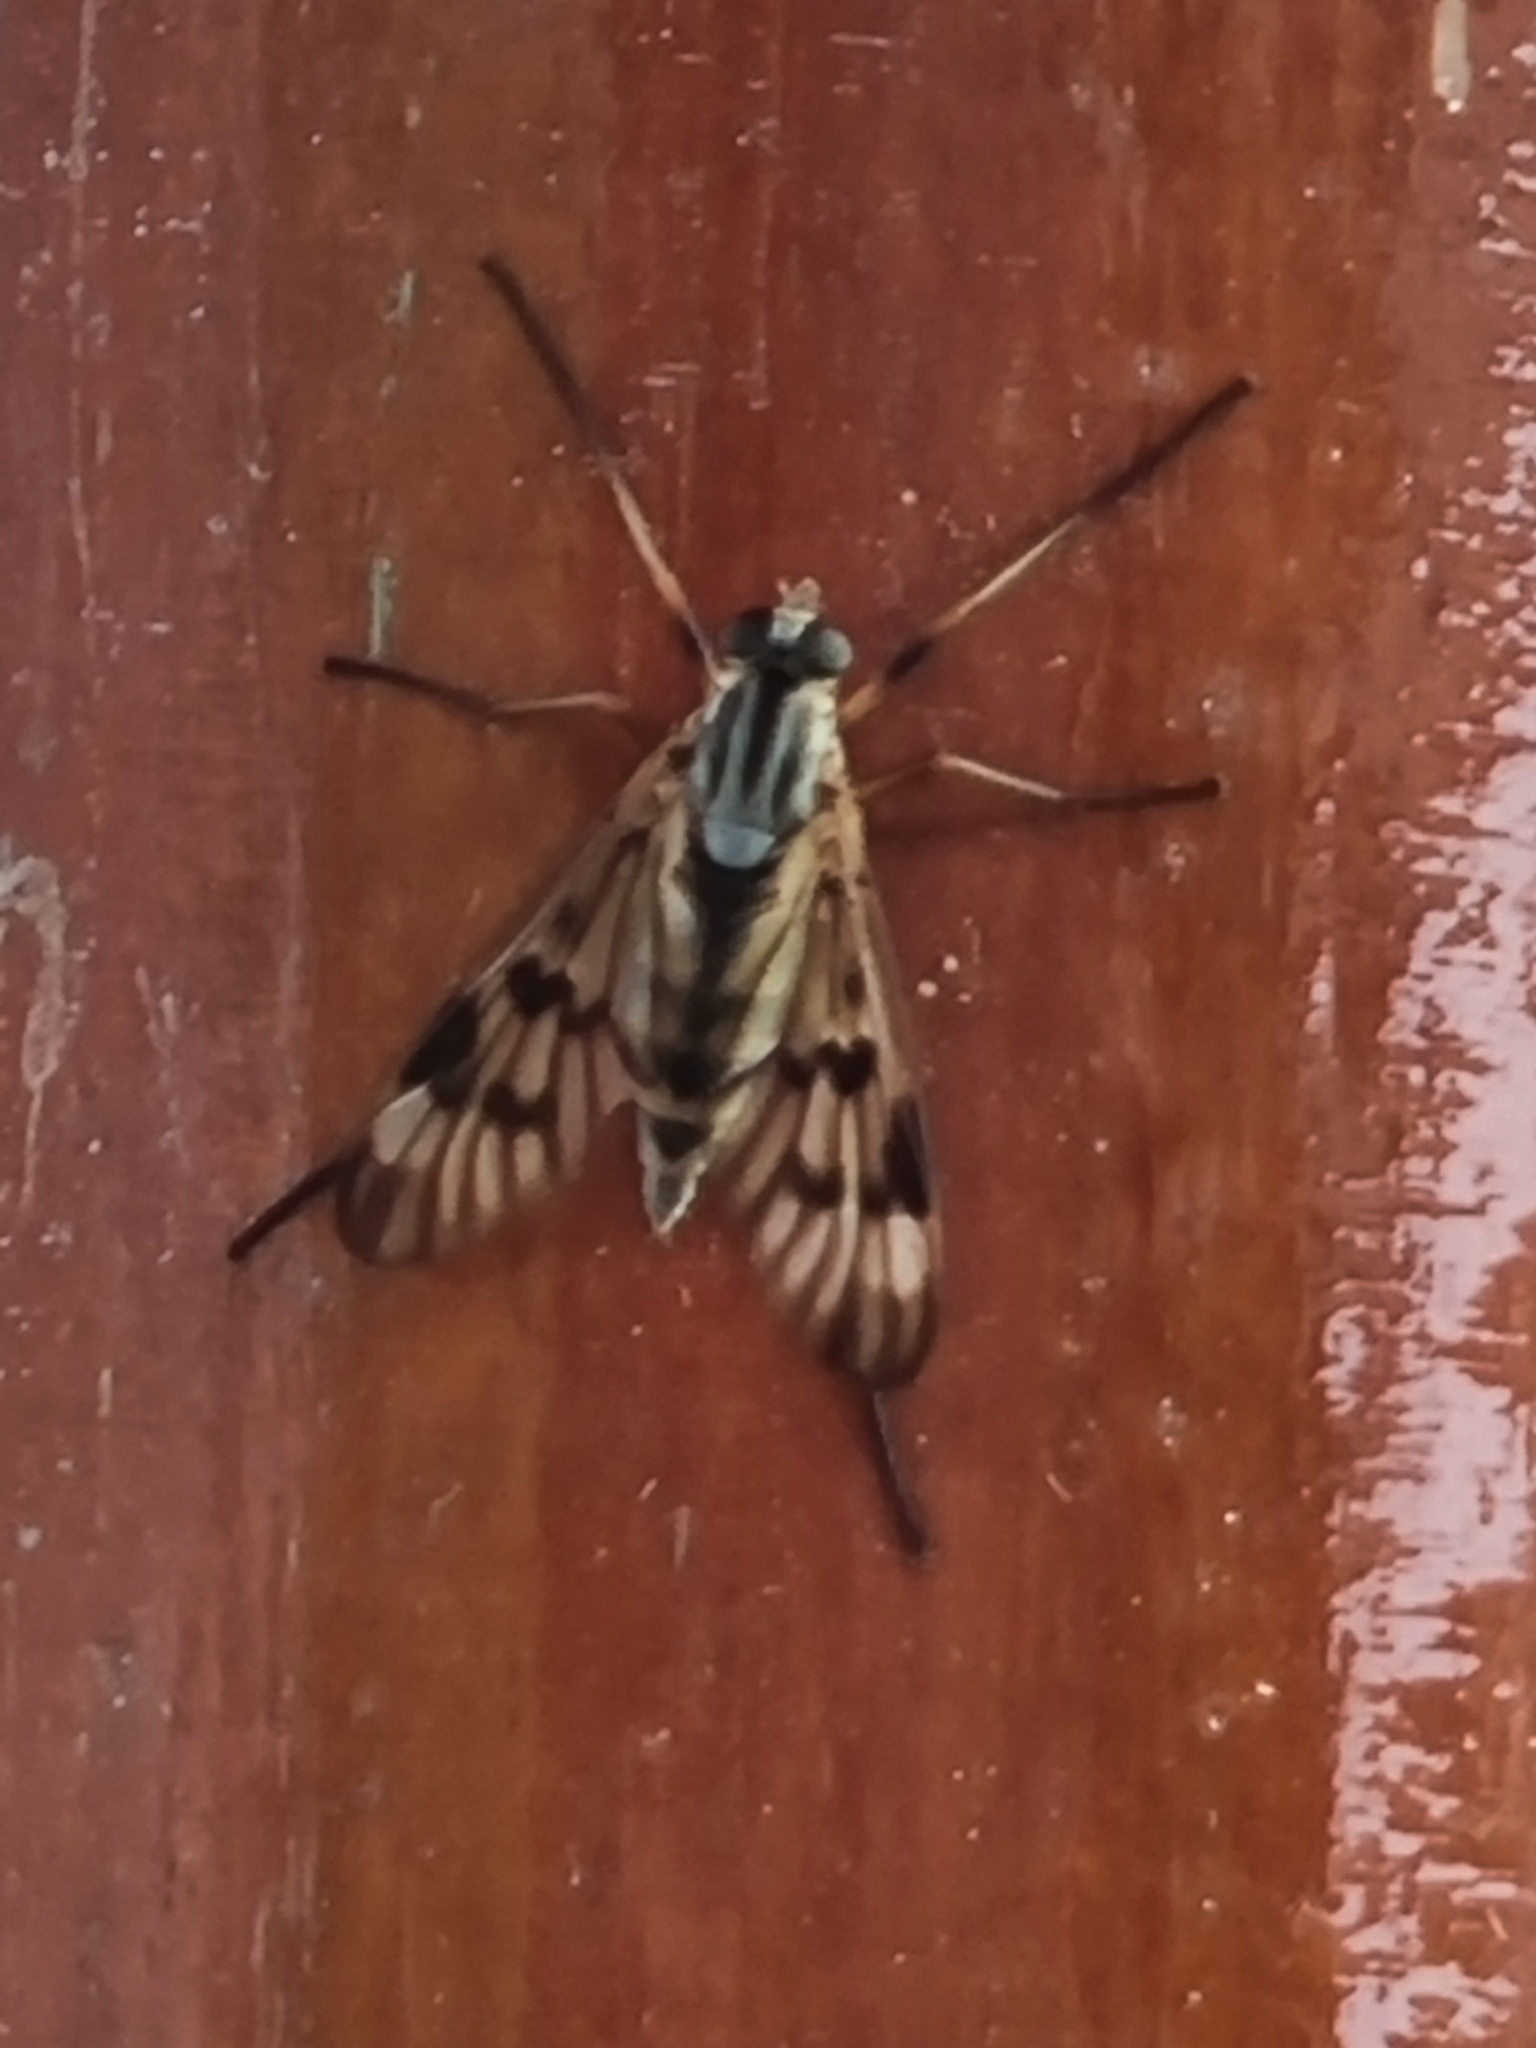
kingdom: Animalia
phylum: Arthropoda
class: Insecta
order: Diptera
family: Rhagionidae
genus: Rhagio
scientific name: Rhagio scolopacea
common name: Downlooker snipefly
